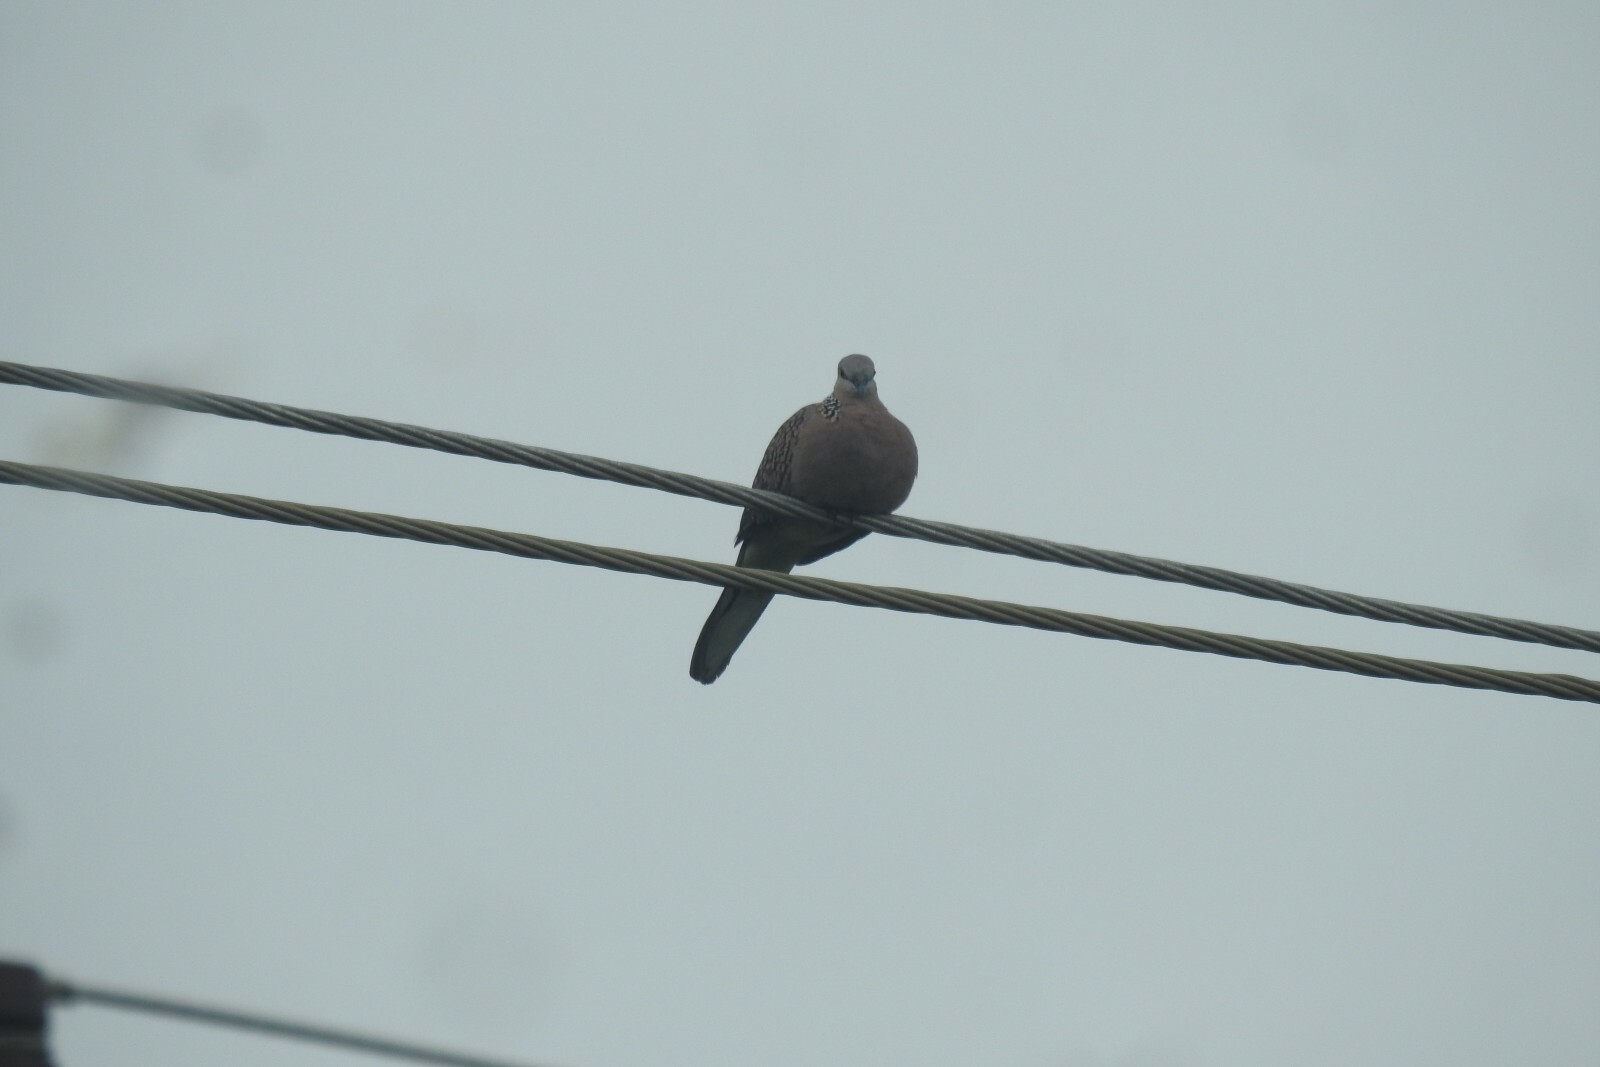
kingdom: Animalia
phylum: Chordata
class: Aves
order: Columbiformes
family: Columbidae
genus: Spilopelia
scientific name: Spilopelia chinensis
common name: Spotted dove
